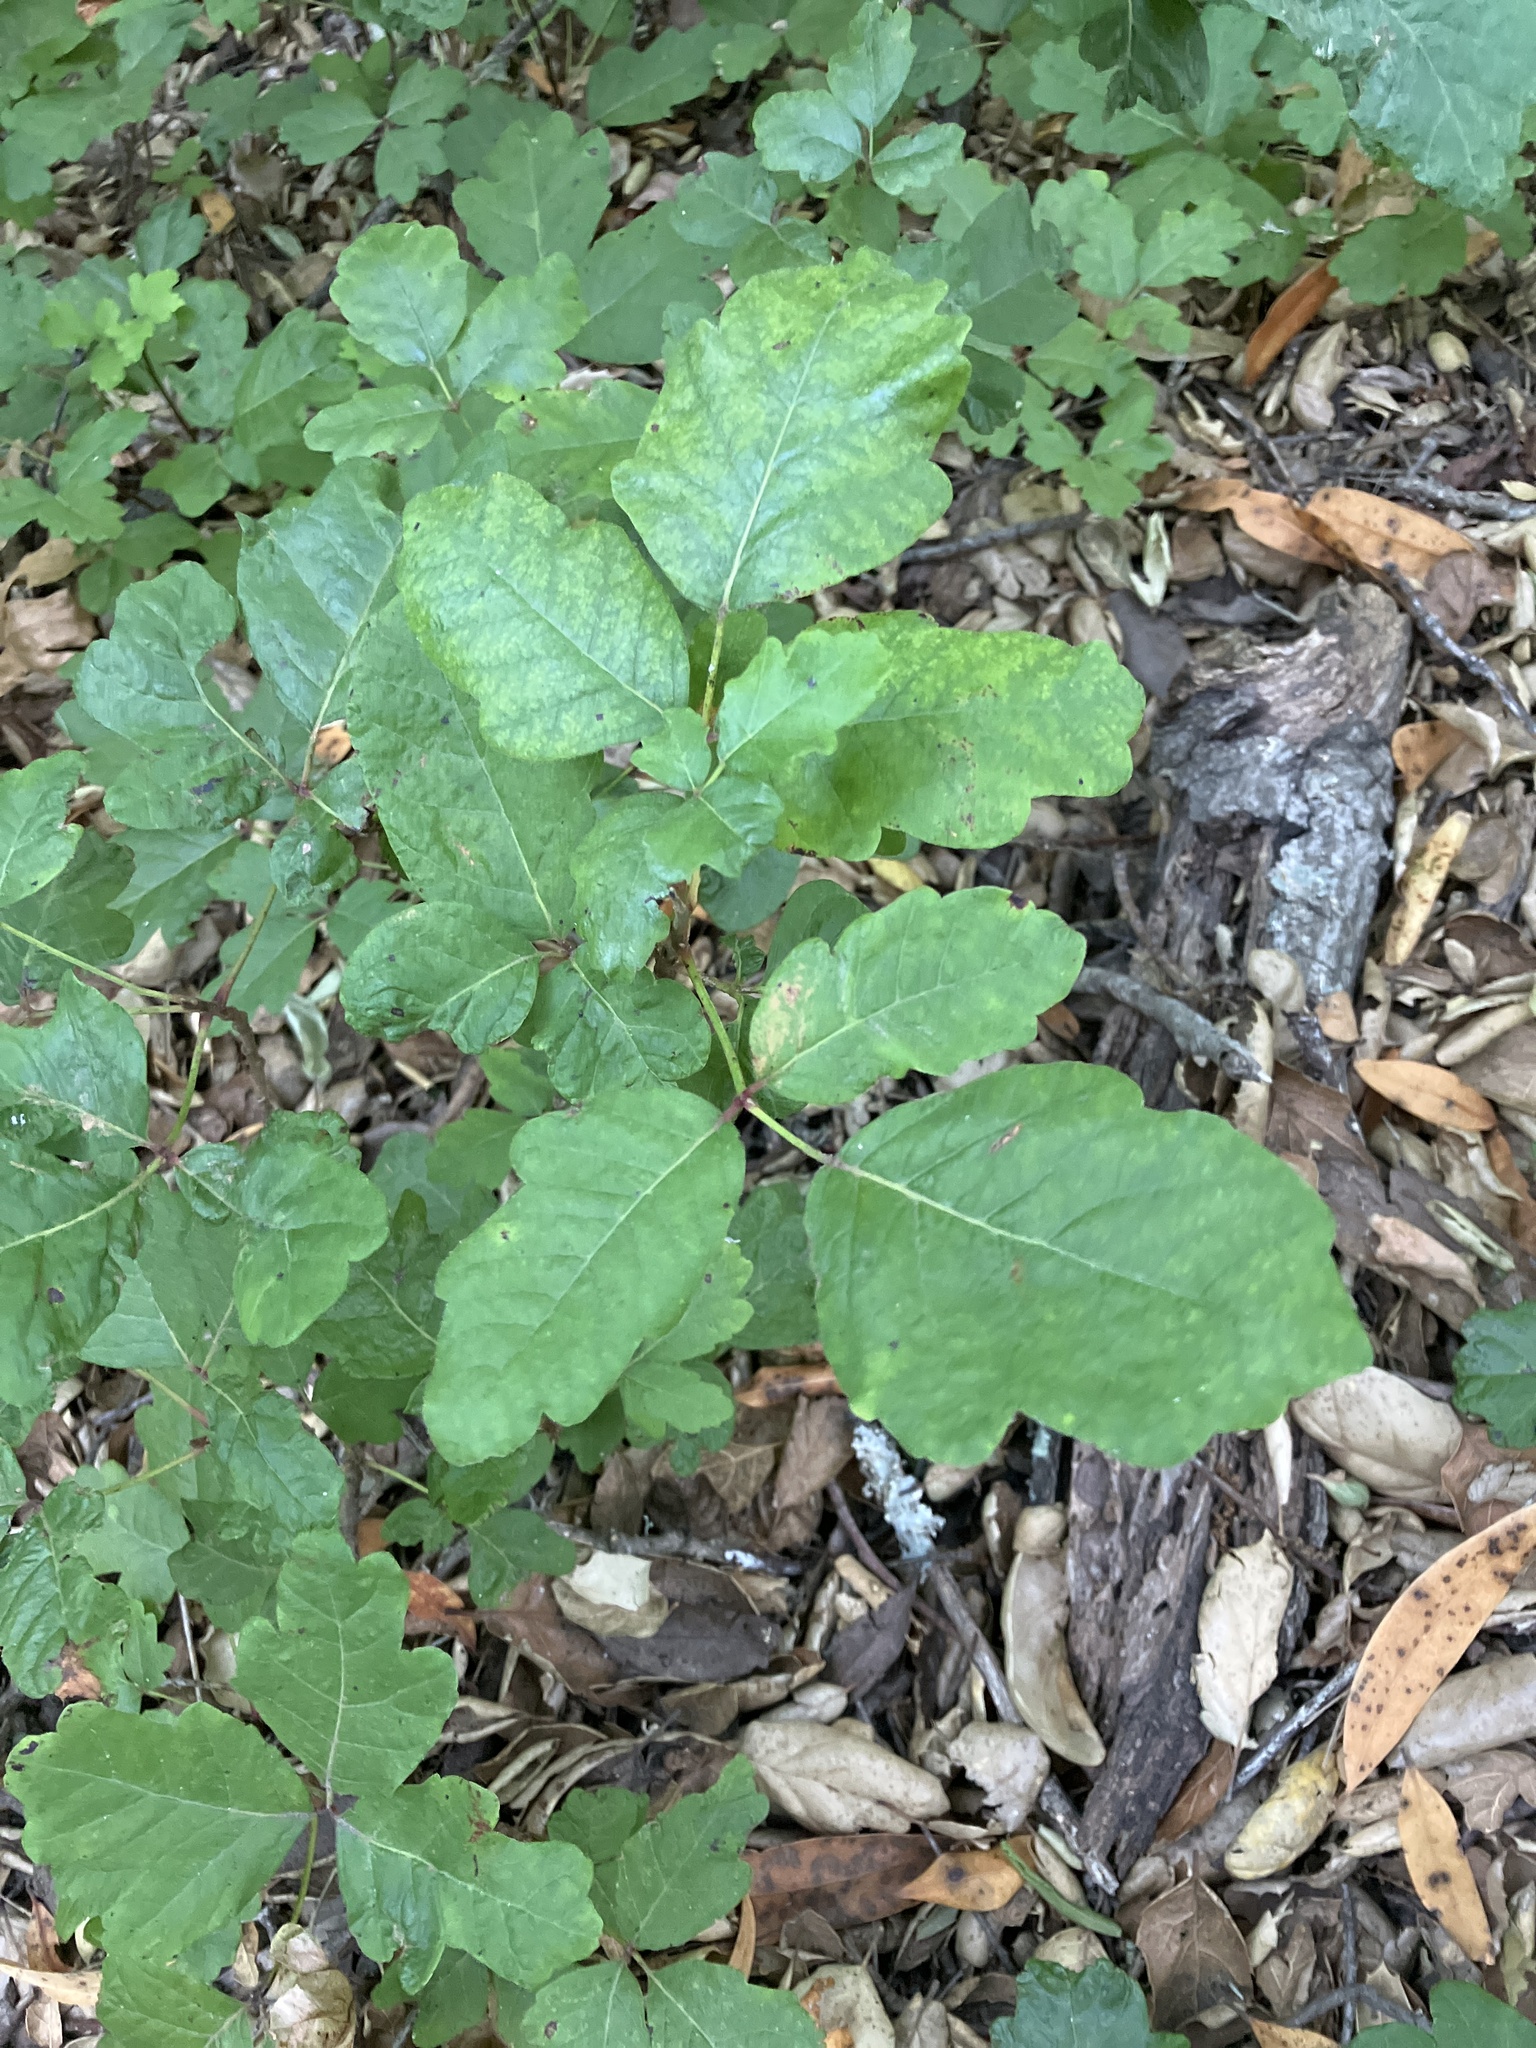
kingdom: Plantae
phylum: Tracheophyta
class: Magnoliopsida
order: Sapindales
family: Anacardiaceae
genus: Toxicodendron
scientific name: Toxicodendron diversilobum
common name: Pacific poison-oak
